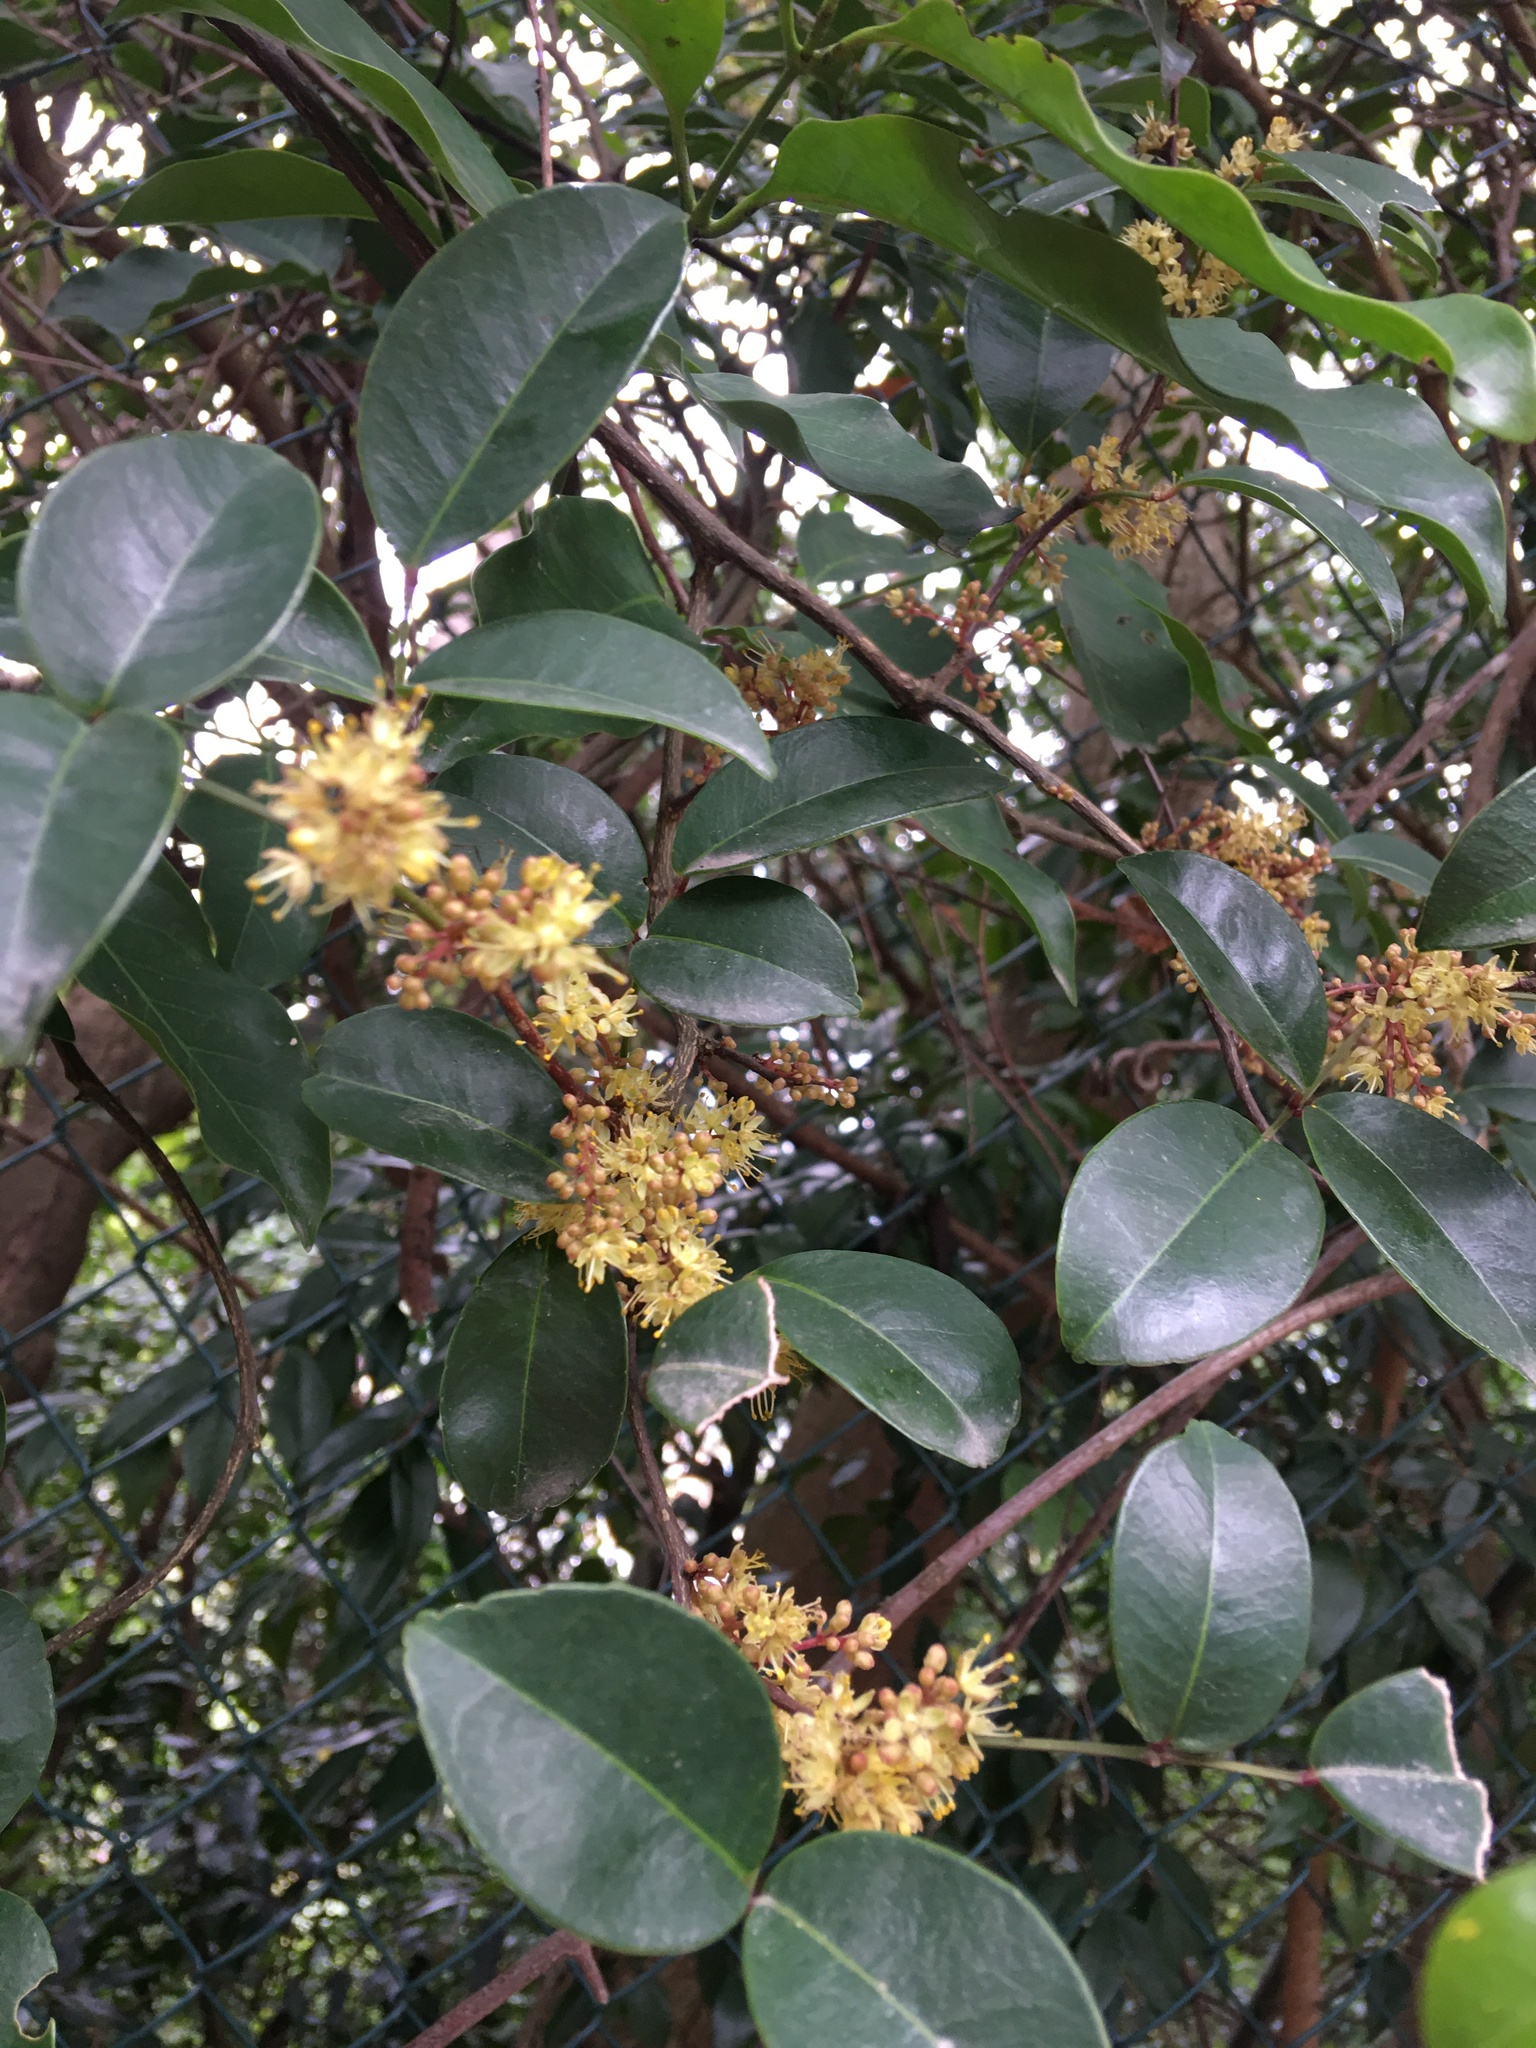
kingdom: Plantae
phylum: Tracheophyta
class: Magnoliopsida
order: Sapindales
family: Rutaceae
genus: Zanthoxylum
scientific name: Zanthoxylum nitidum
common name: Shiny-leaf prickly-ash
